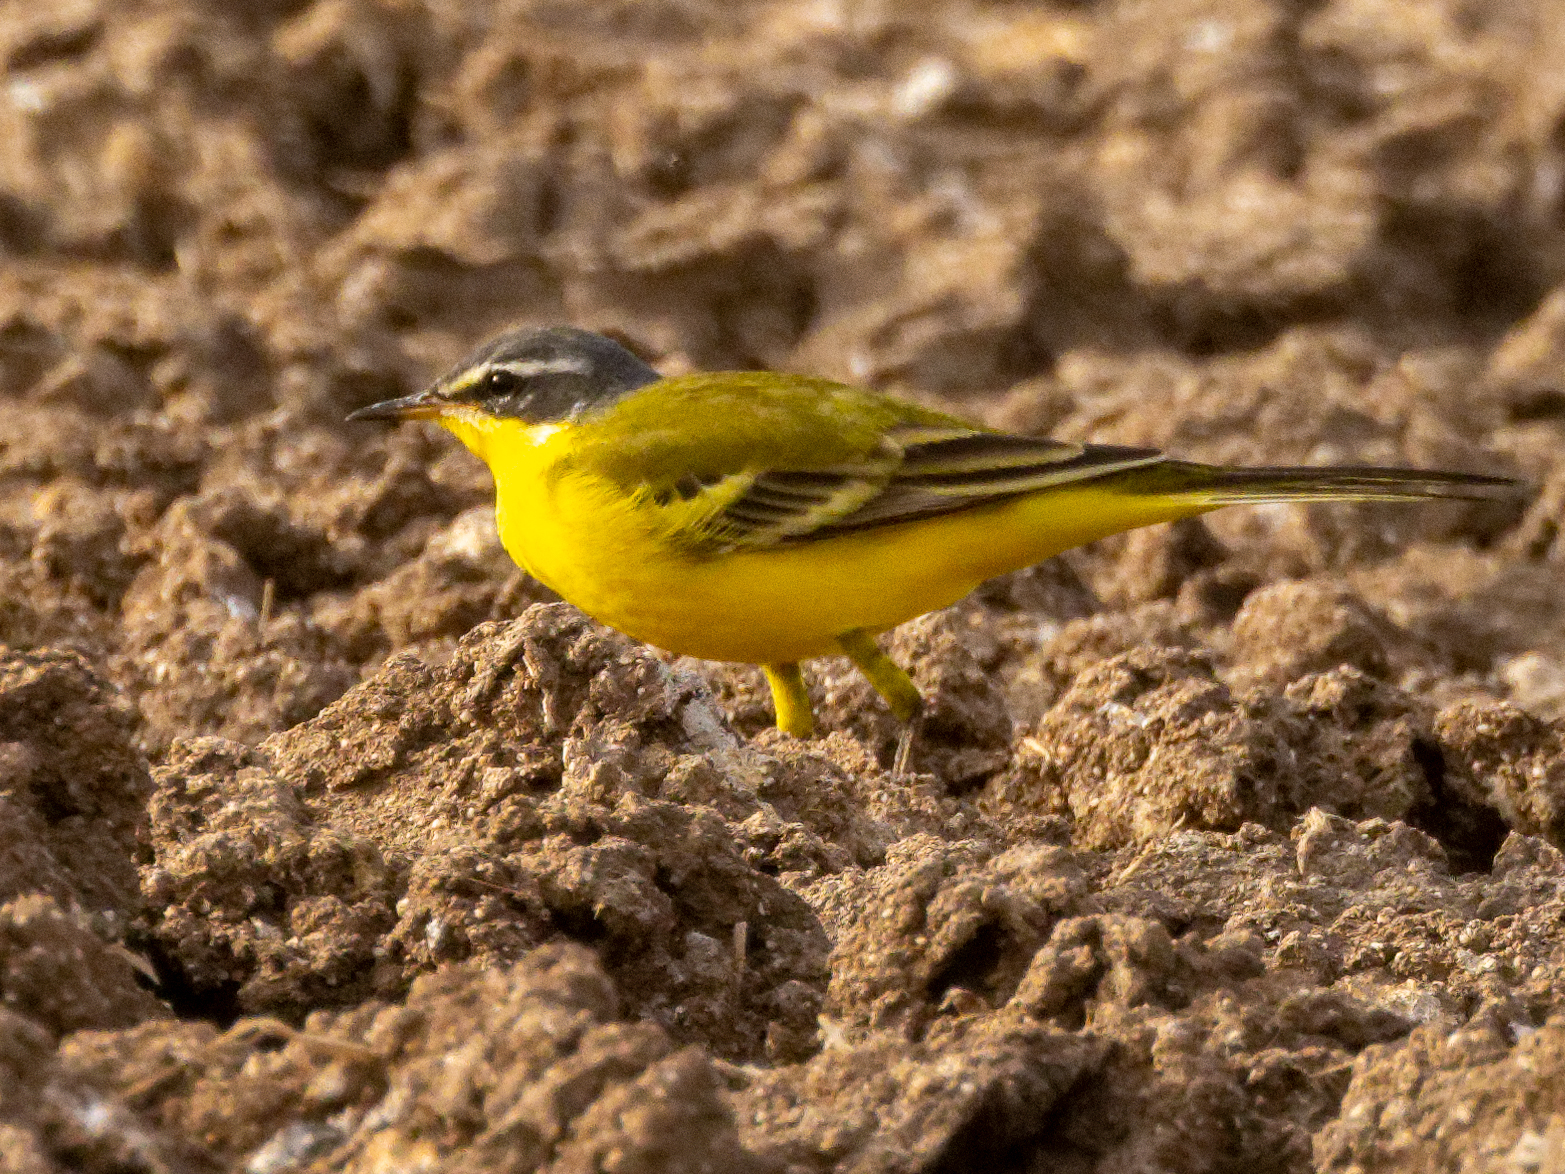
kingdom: Animalia
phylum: Chordata
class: Aves
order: Passeriformes
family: Motacillidae
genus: Motacilla
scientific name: Motacilla flava
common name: Western yellow wagtail
